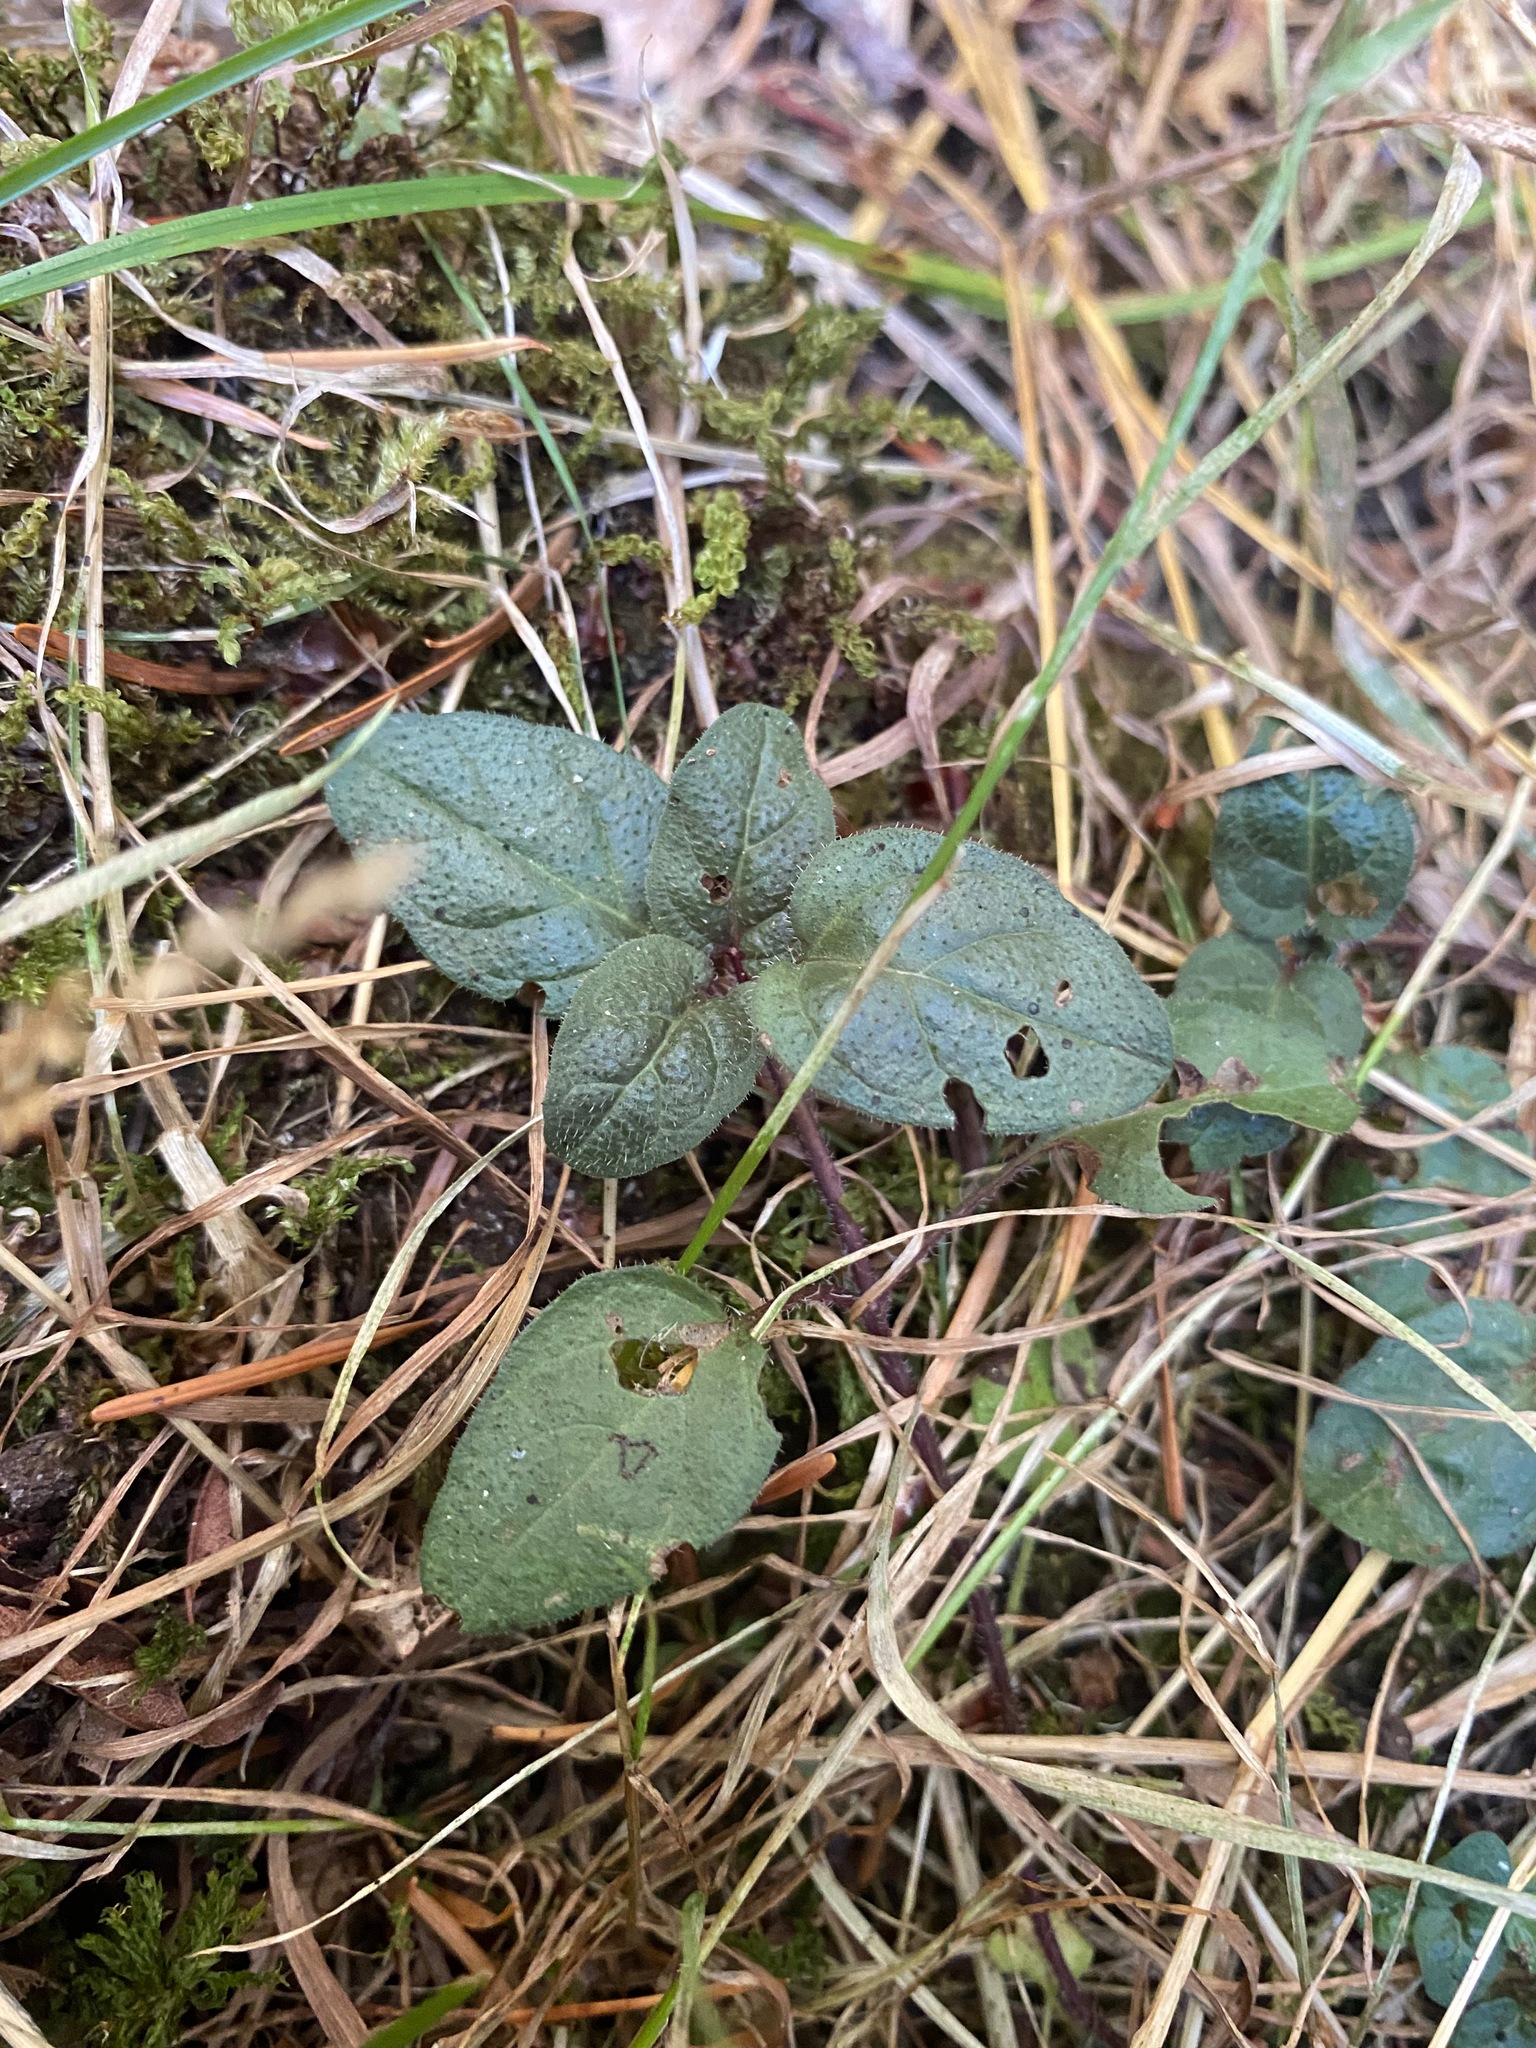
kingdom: Plantae
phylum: Tracheophyta
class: Magnoliopsida
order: Lamiales
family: Lamiaceae
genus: Prunella
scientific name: Prunella vulgaris
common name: Heal-all
